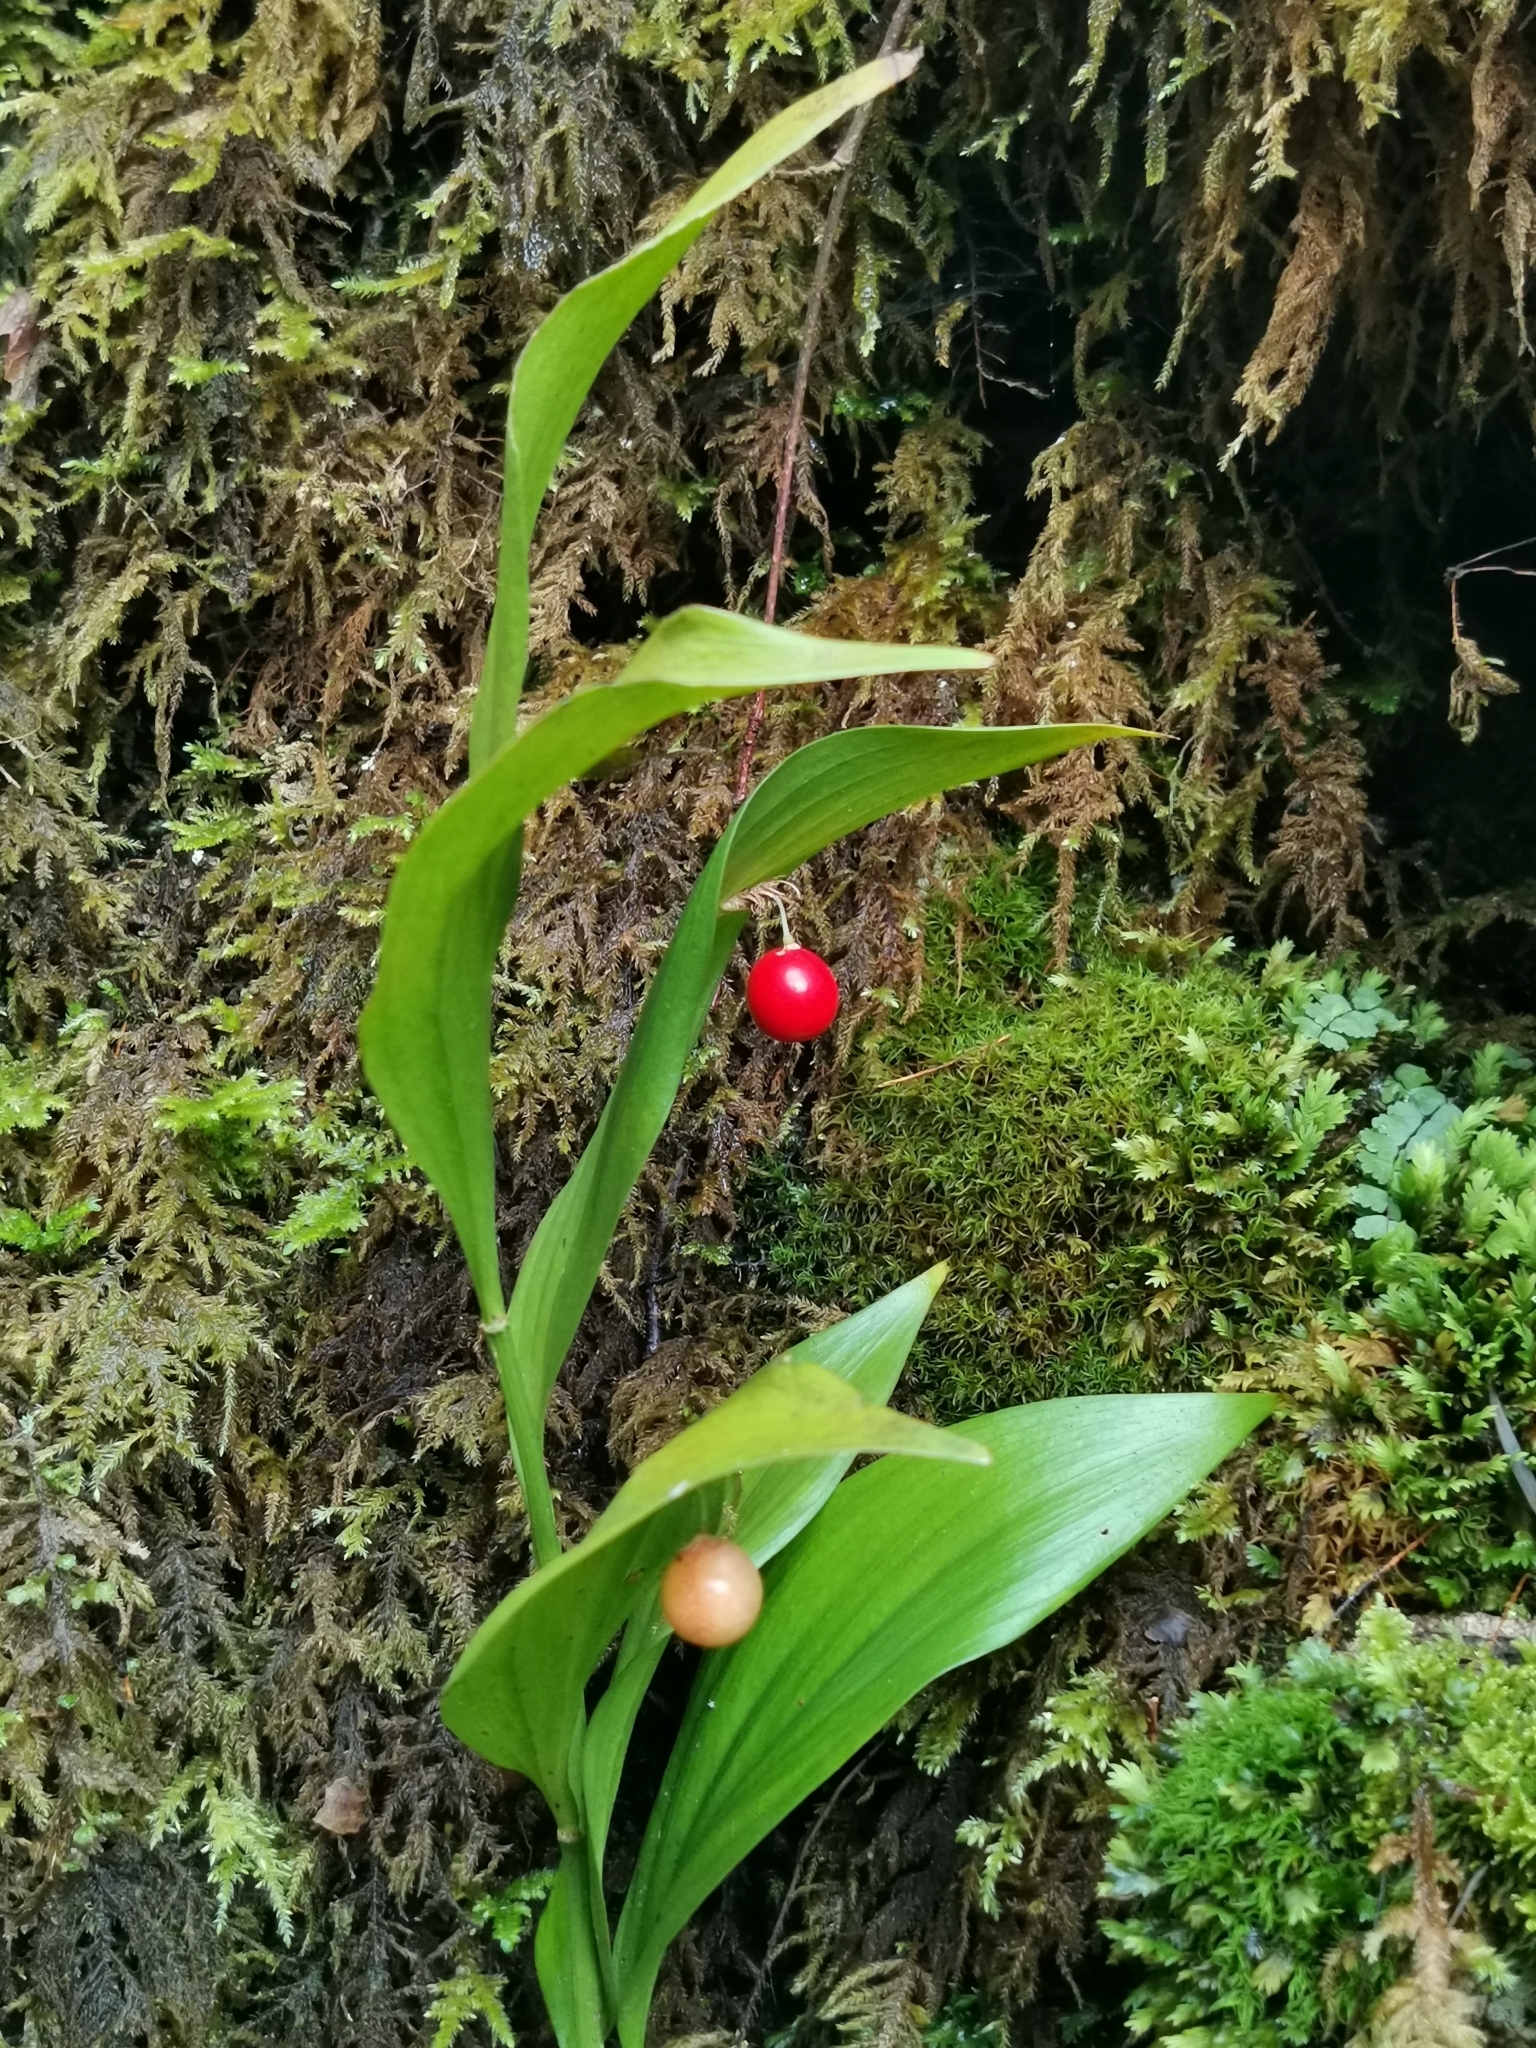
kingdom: Plantae
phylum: Tracheophyta
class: Liliopsida
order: Asparagales
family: Asparagaceae
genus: Ruscus
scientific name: Ruscus colchicus
